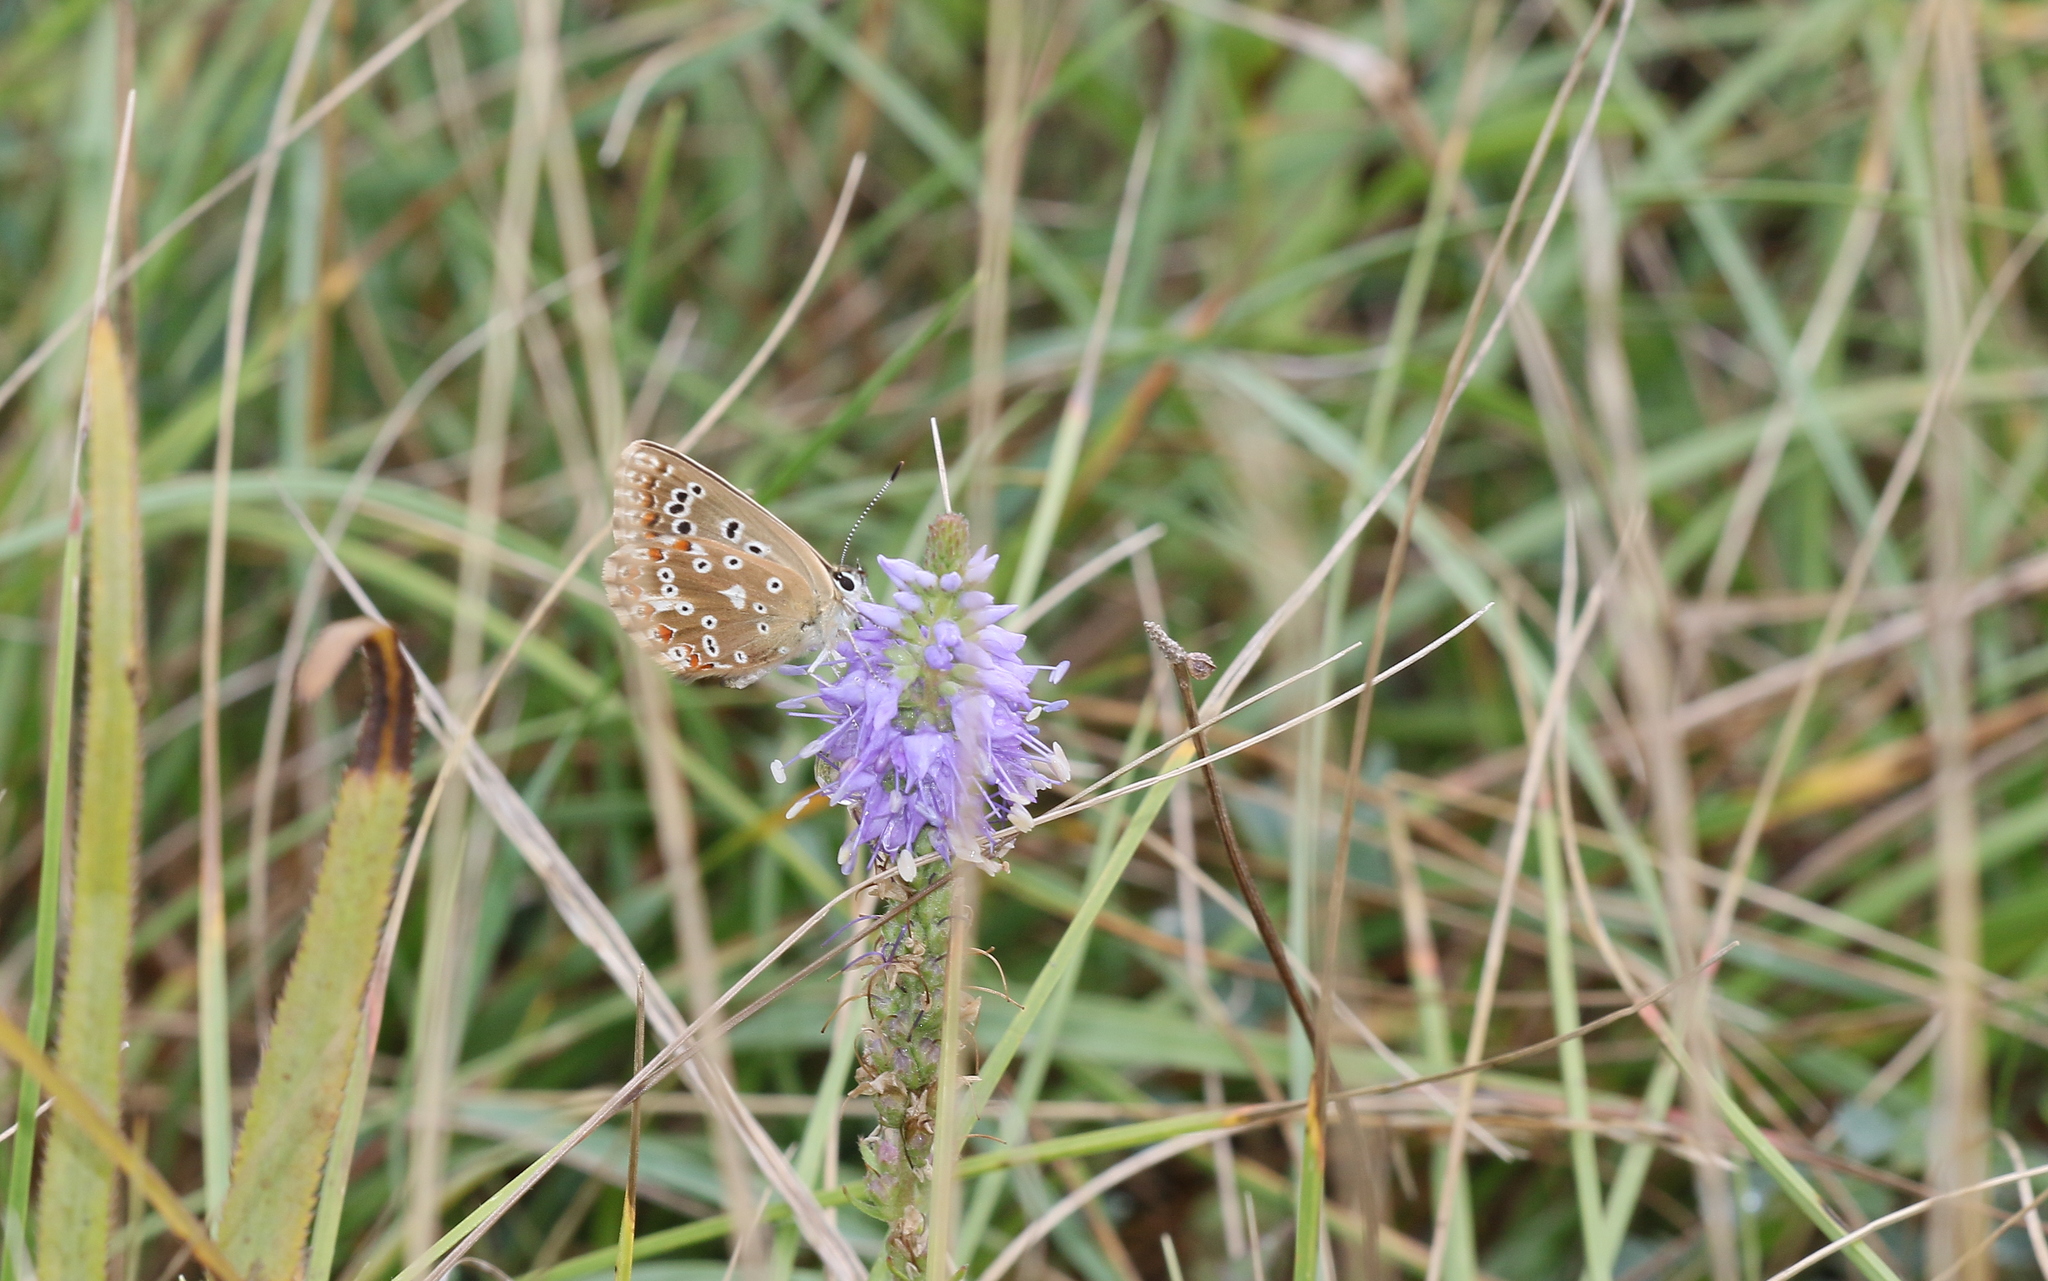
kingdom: Animalia
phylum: Arthropoda
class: Insecta
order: Lepidoptera
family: Lycaenidae
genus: Lysandra
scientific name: Lysandra coridon
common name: Chalkhill blue
